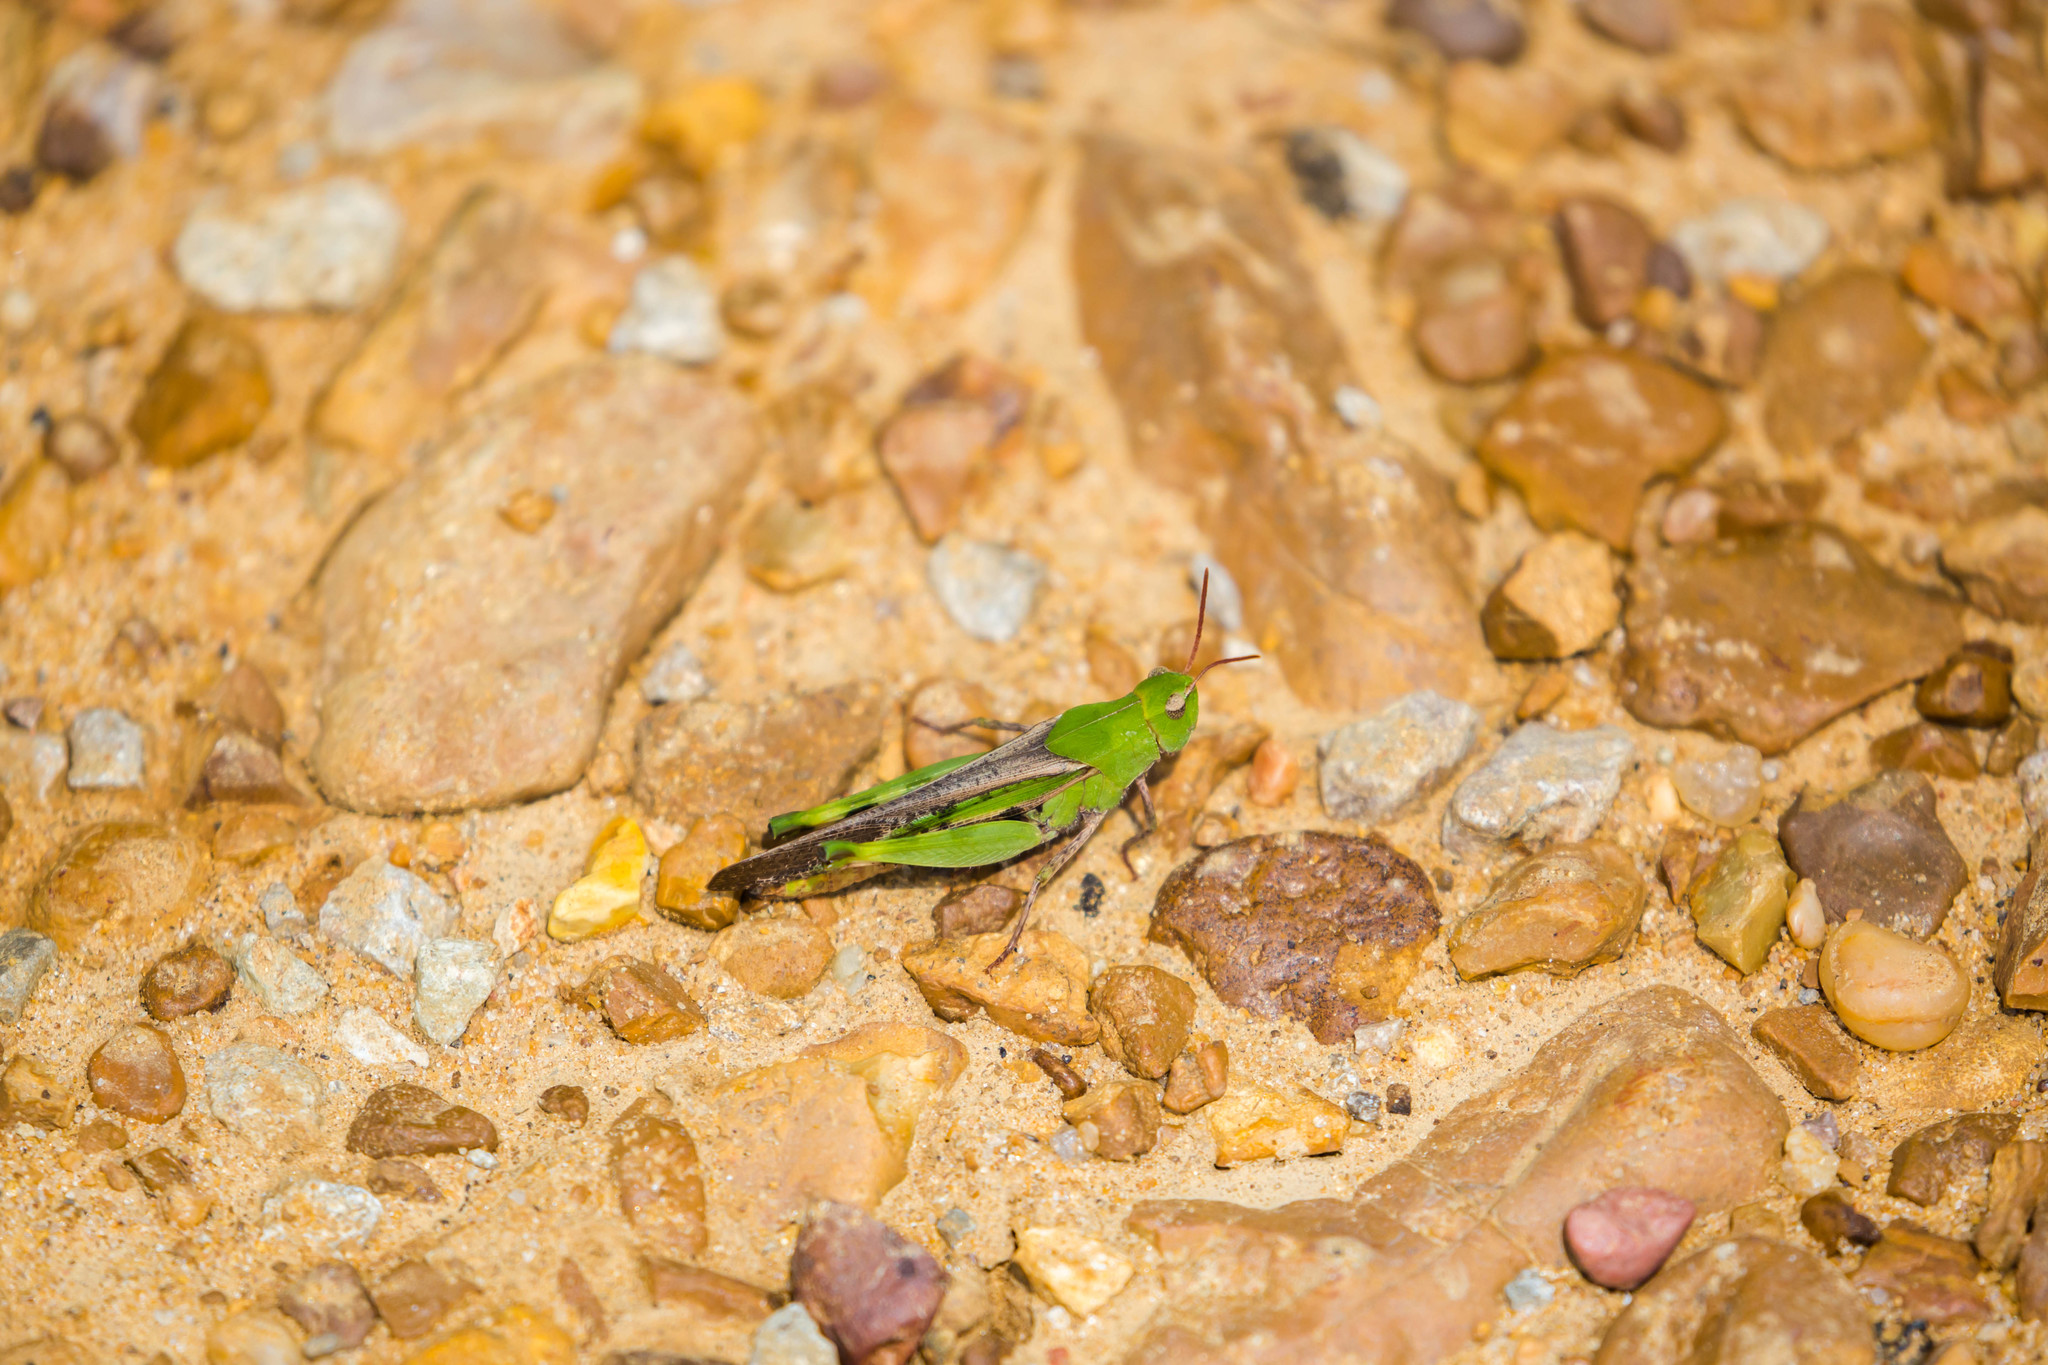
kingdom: Animalia
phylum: Arthropoda
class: Insecta
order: Orthoptera
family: Acrididae
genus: Chortophaga
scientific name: Chortophaga viridifasciata
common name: Green-striped grasshopper
